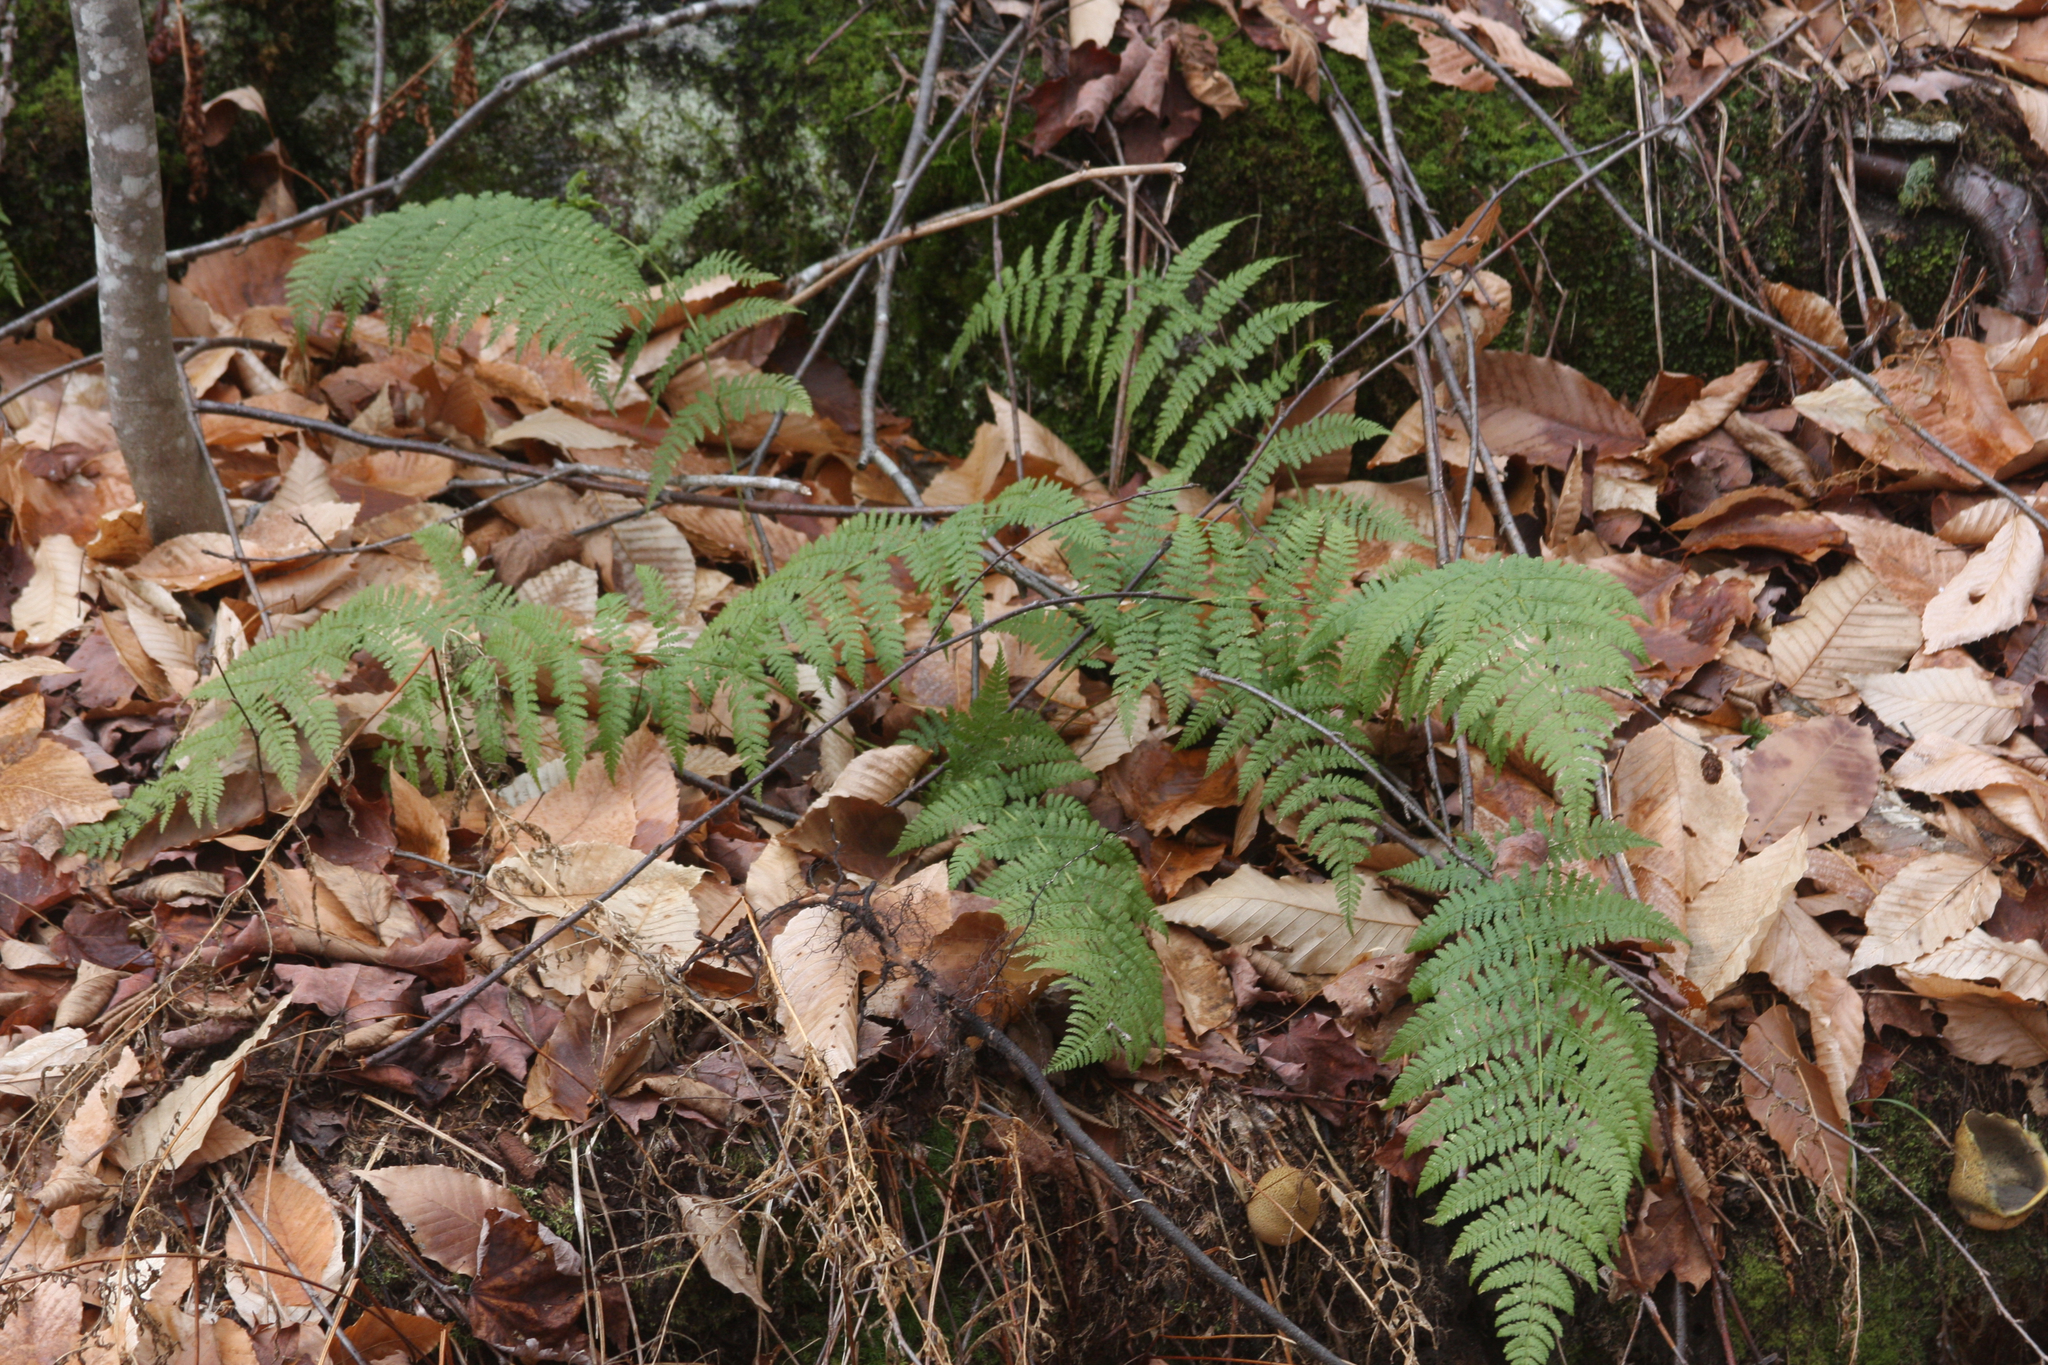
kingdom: Plantae
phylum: Tracheophyta
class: Polypodiopsida
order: Polypodiales
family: Dryopteridaceae
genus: Dryopteris
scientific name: Dryopteris intermedia
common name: Evergreen wood fern
